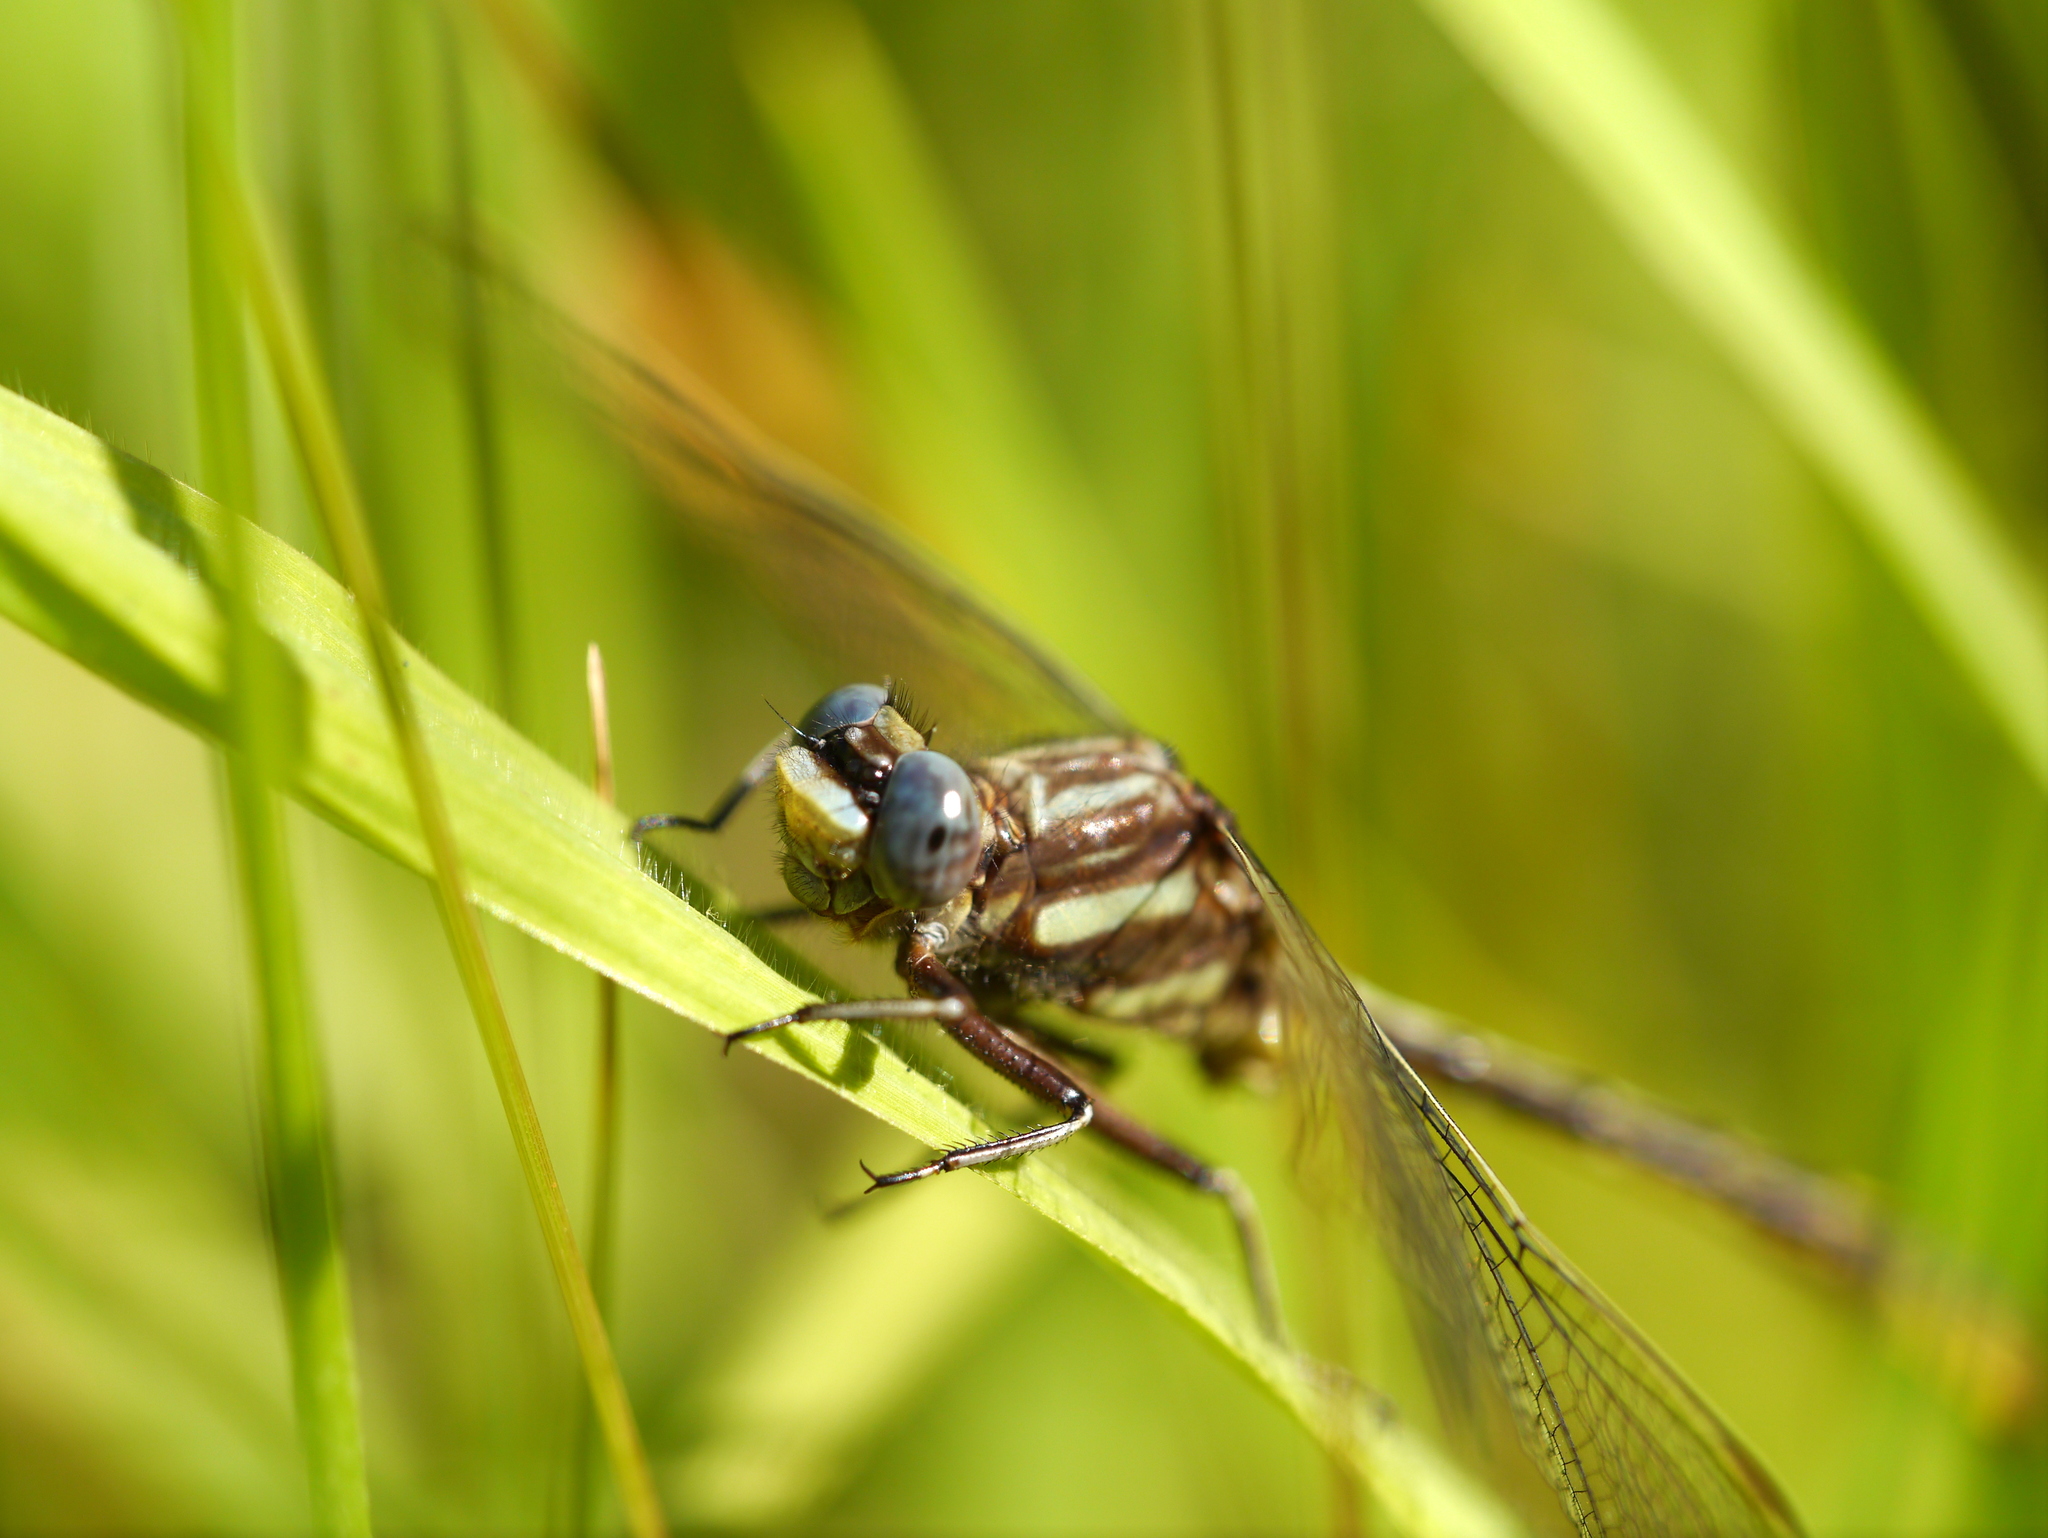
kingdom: Animalia
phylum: Arthropoda
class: Insecta
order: Odonata
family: Gomphidae
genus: Phanogomphus
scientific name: Phanogomphus exilis
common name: Lancet clubtail
